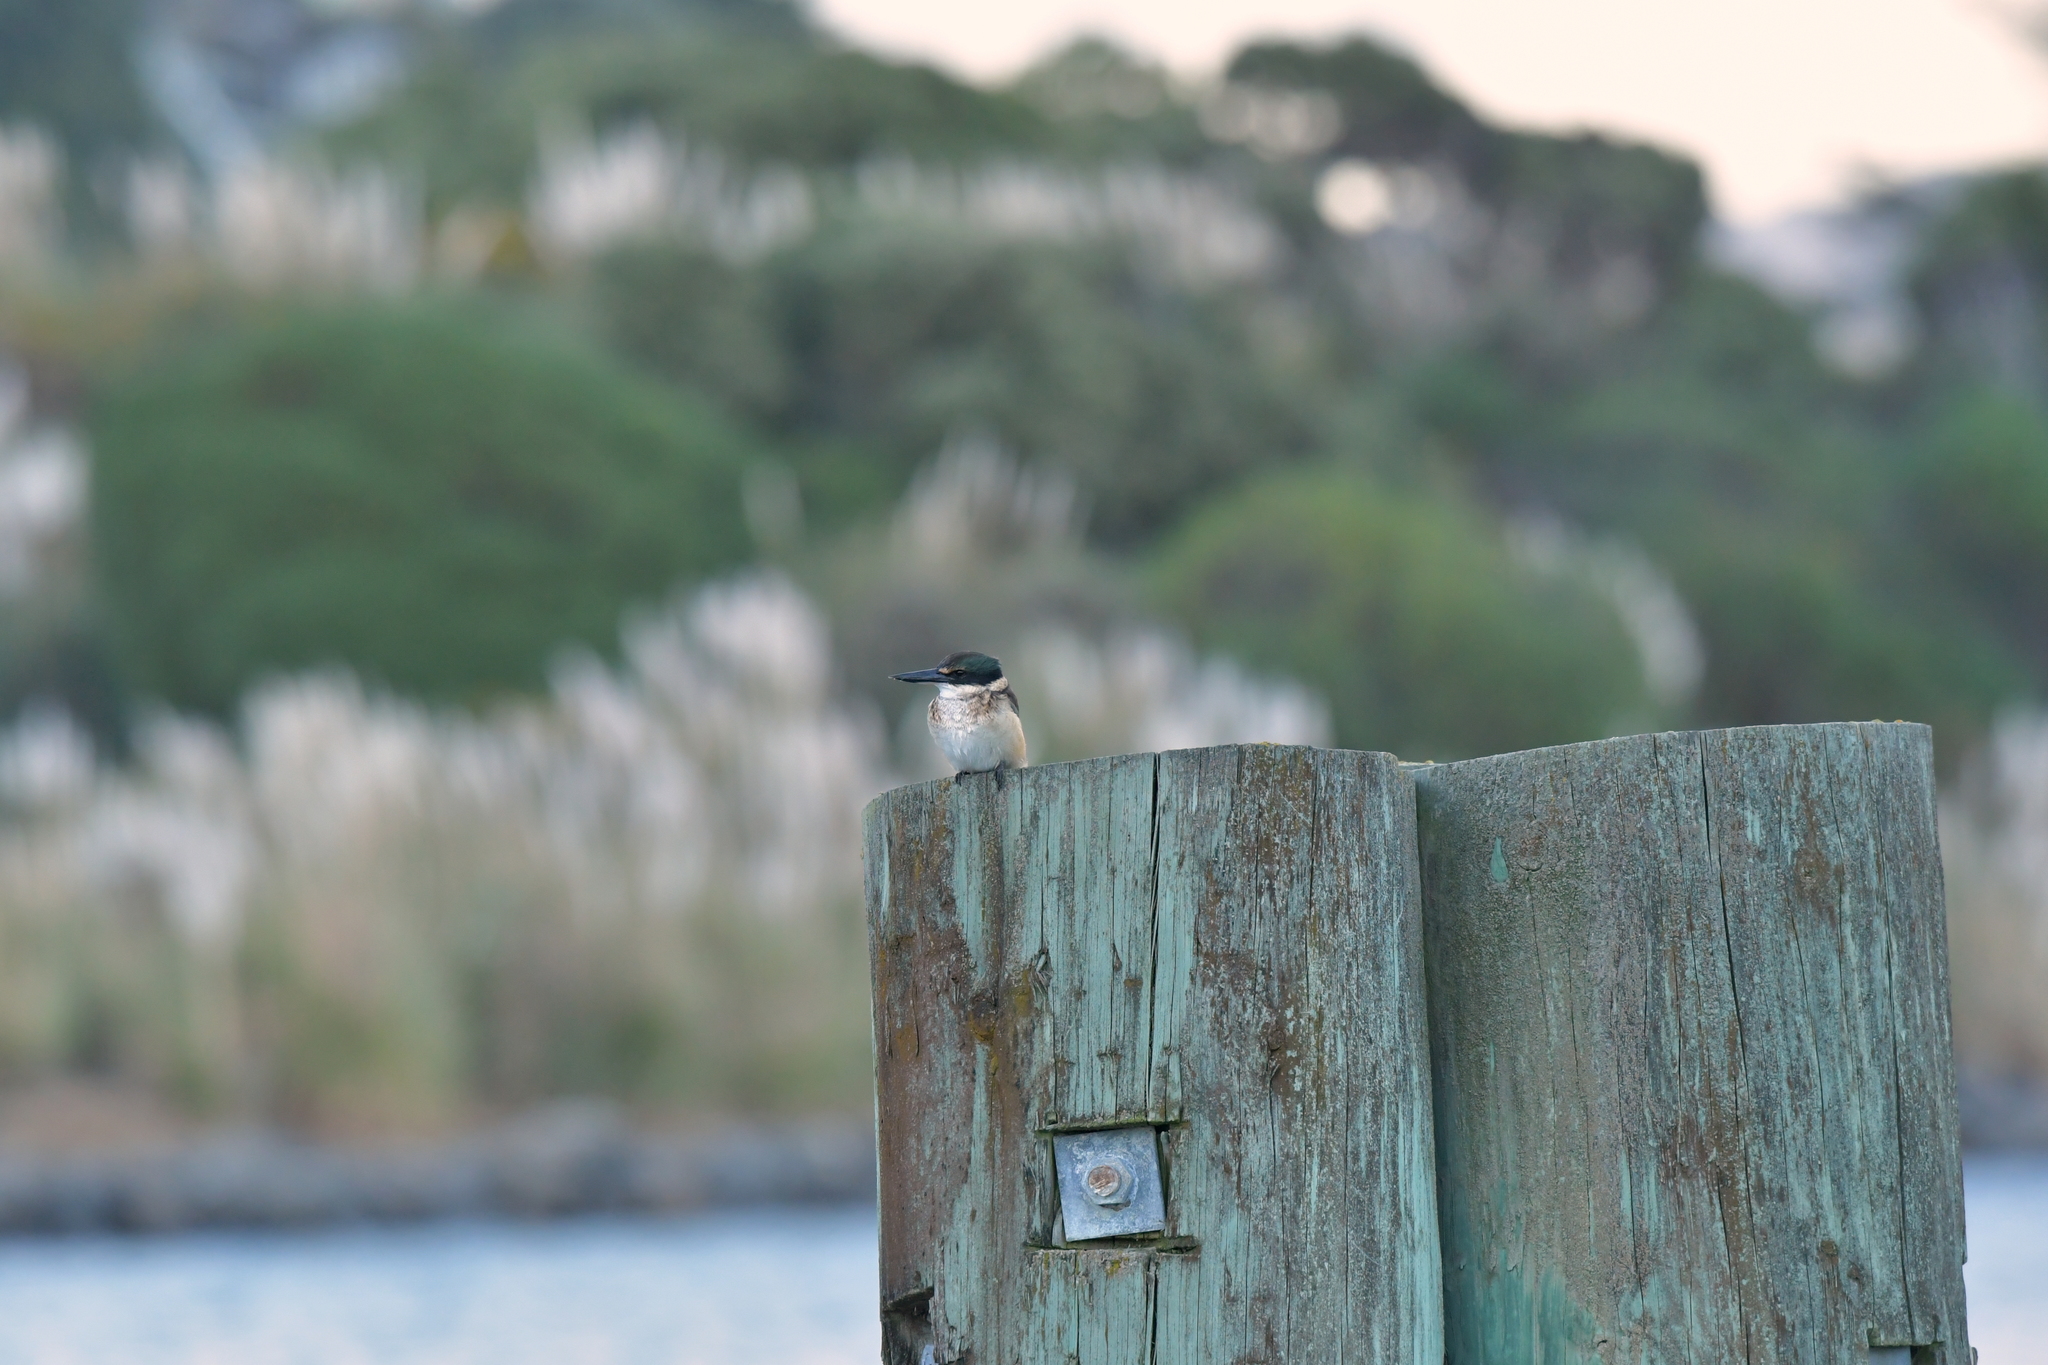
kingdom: Animalia
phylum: Chordata
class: Aves
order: Coraciiformes
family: Alcedinidae
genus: Todiramphus
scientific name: Todiramphus sanctus
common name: Sacred kingfisher
